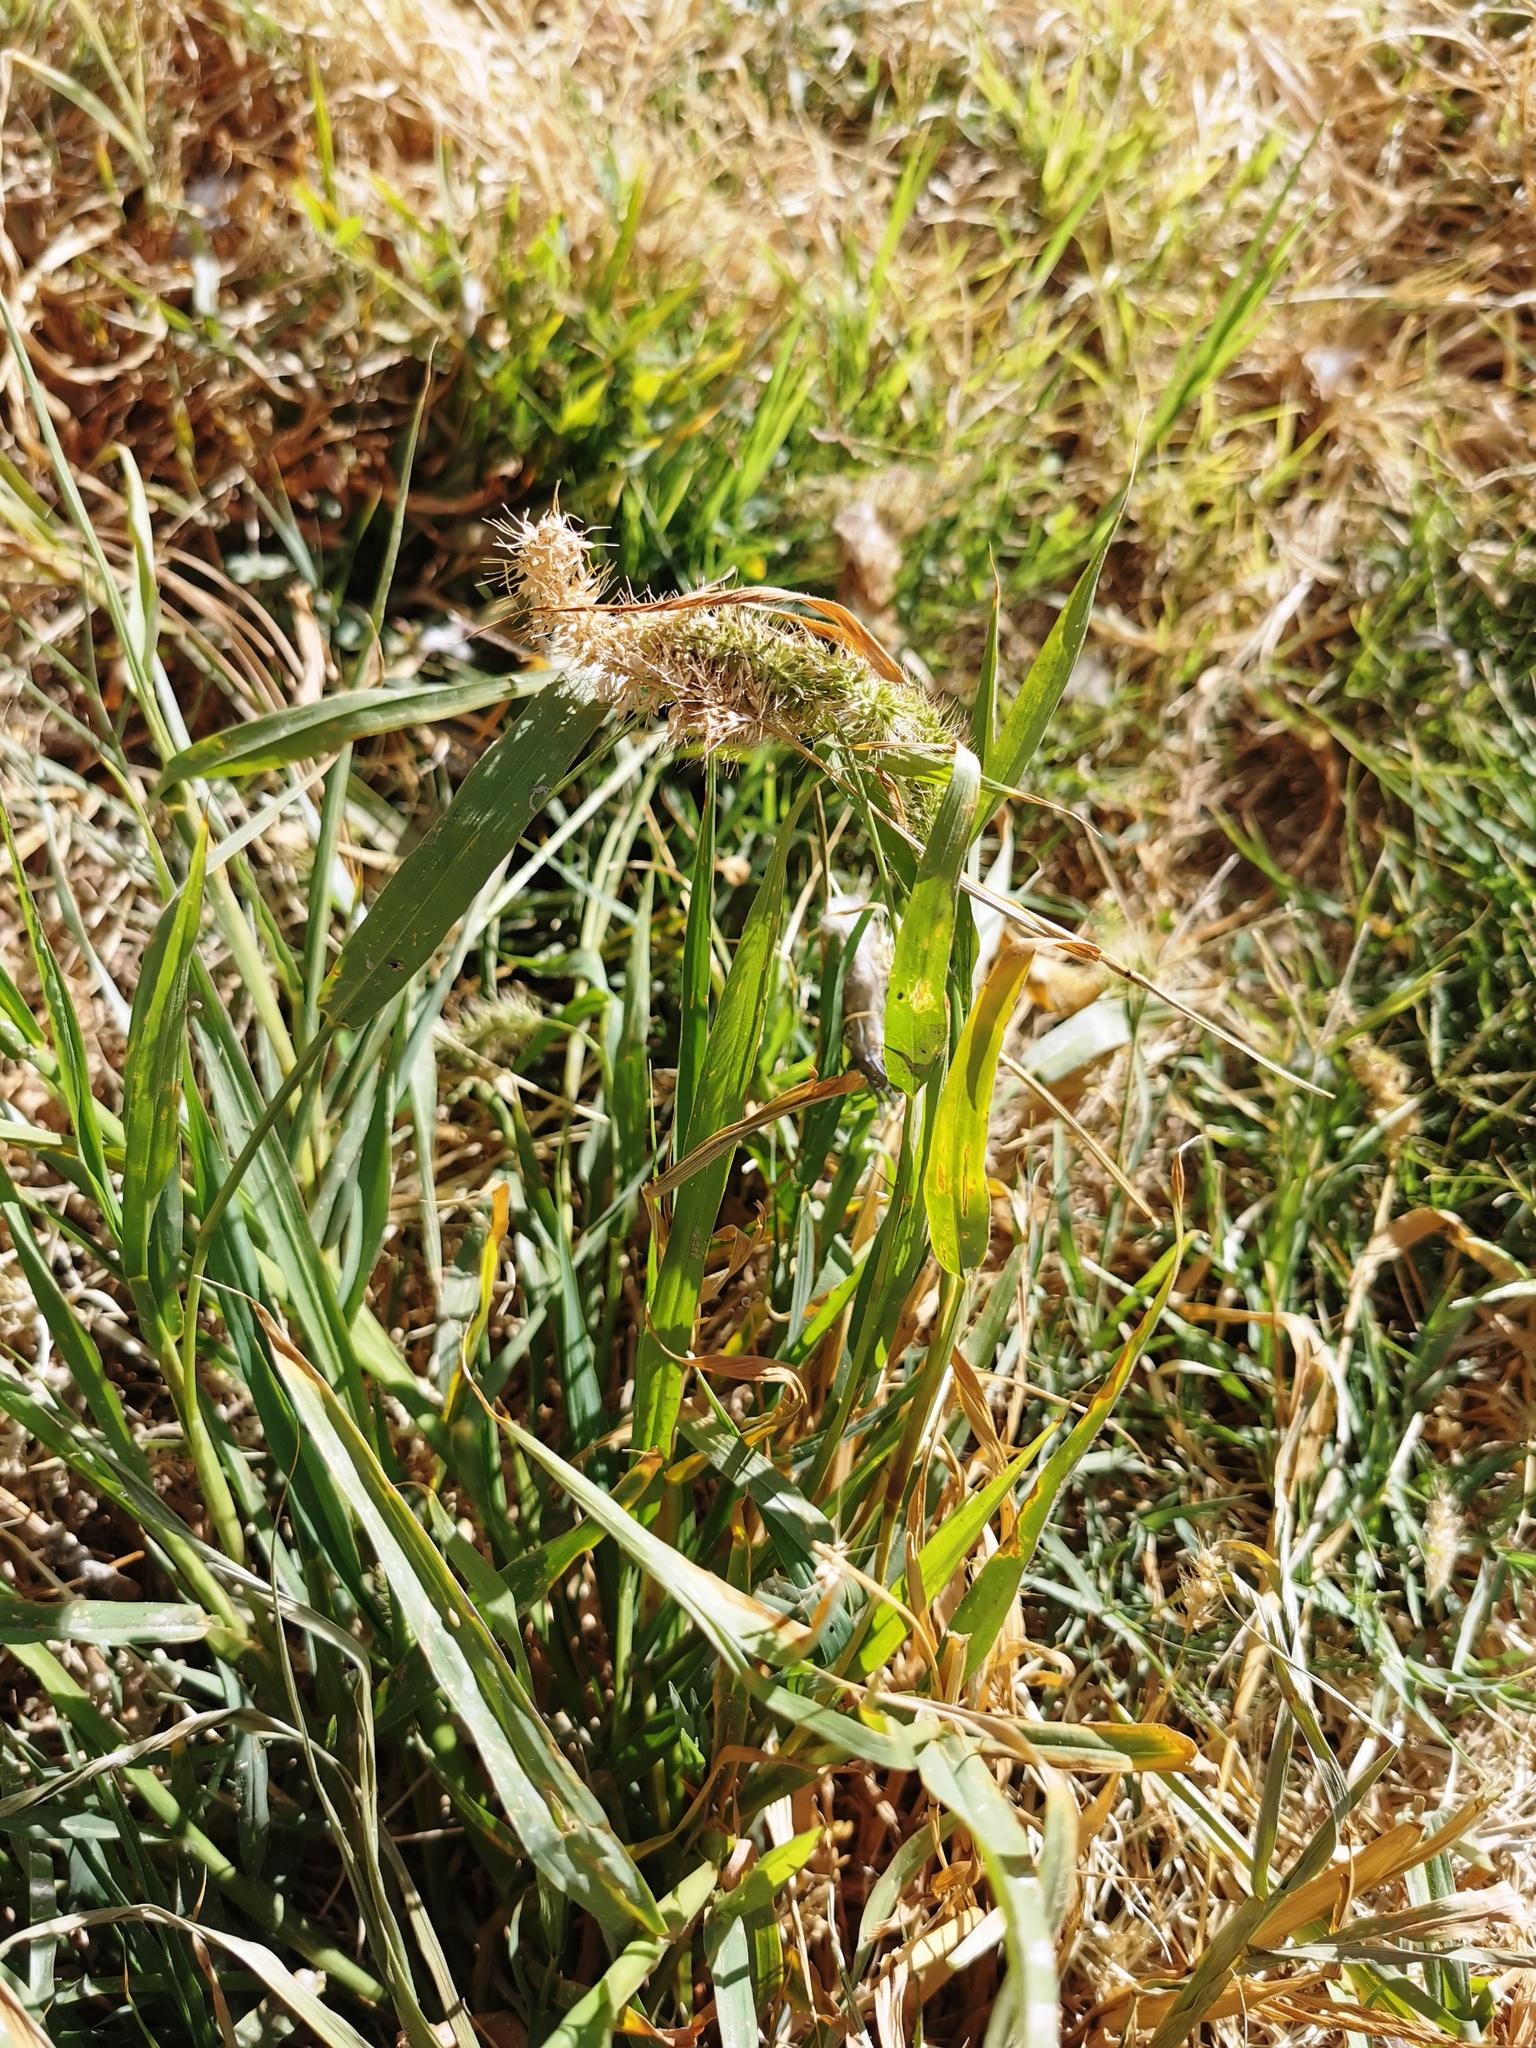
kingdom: Plantae
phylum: Tracheophyta
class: Liliopsida
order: Poales
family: Poaceae
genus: Setaria
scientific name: Setaria adhaerens
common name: Adherent bristle-grass
